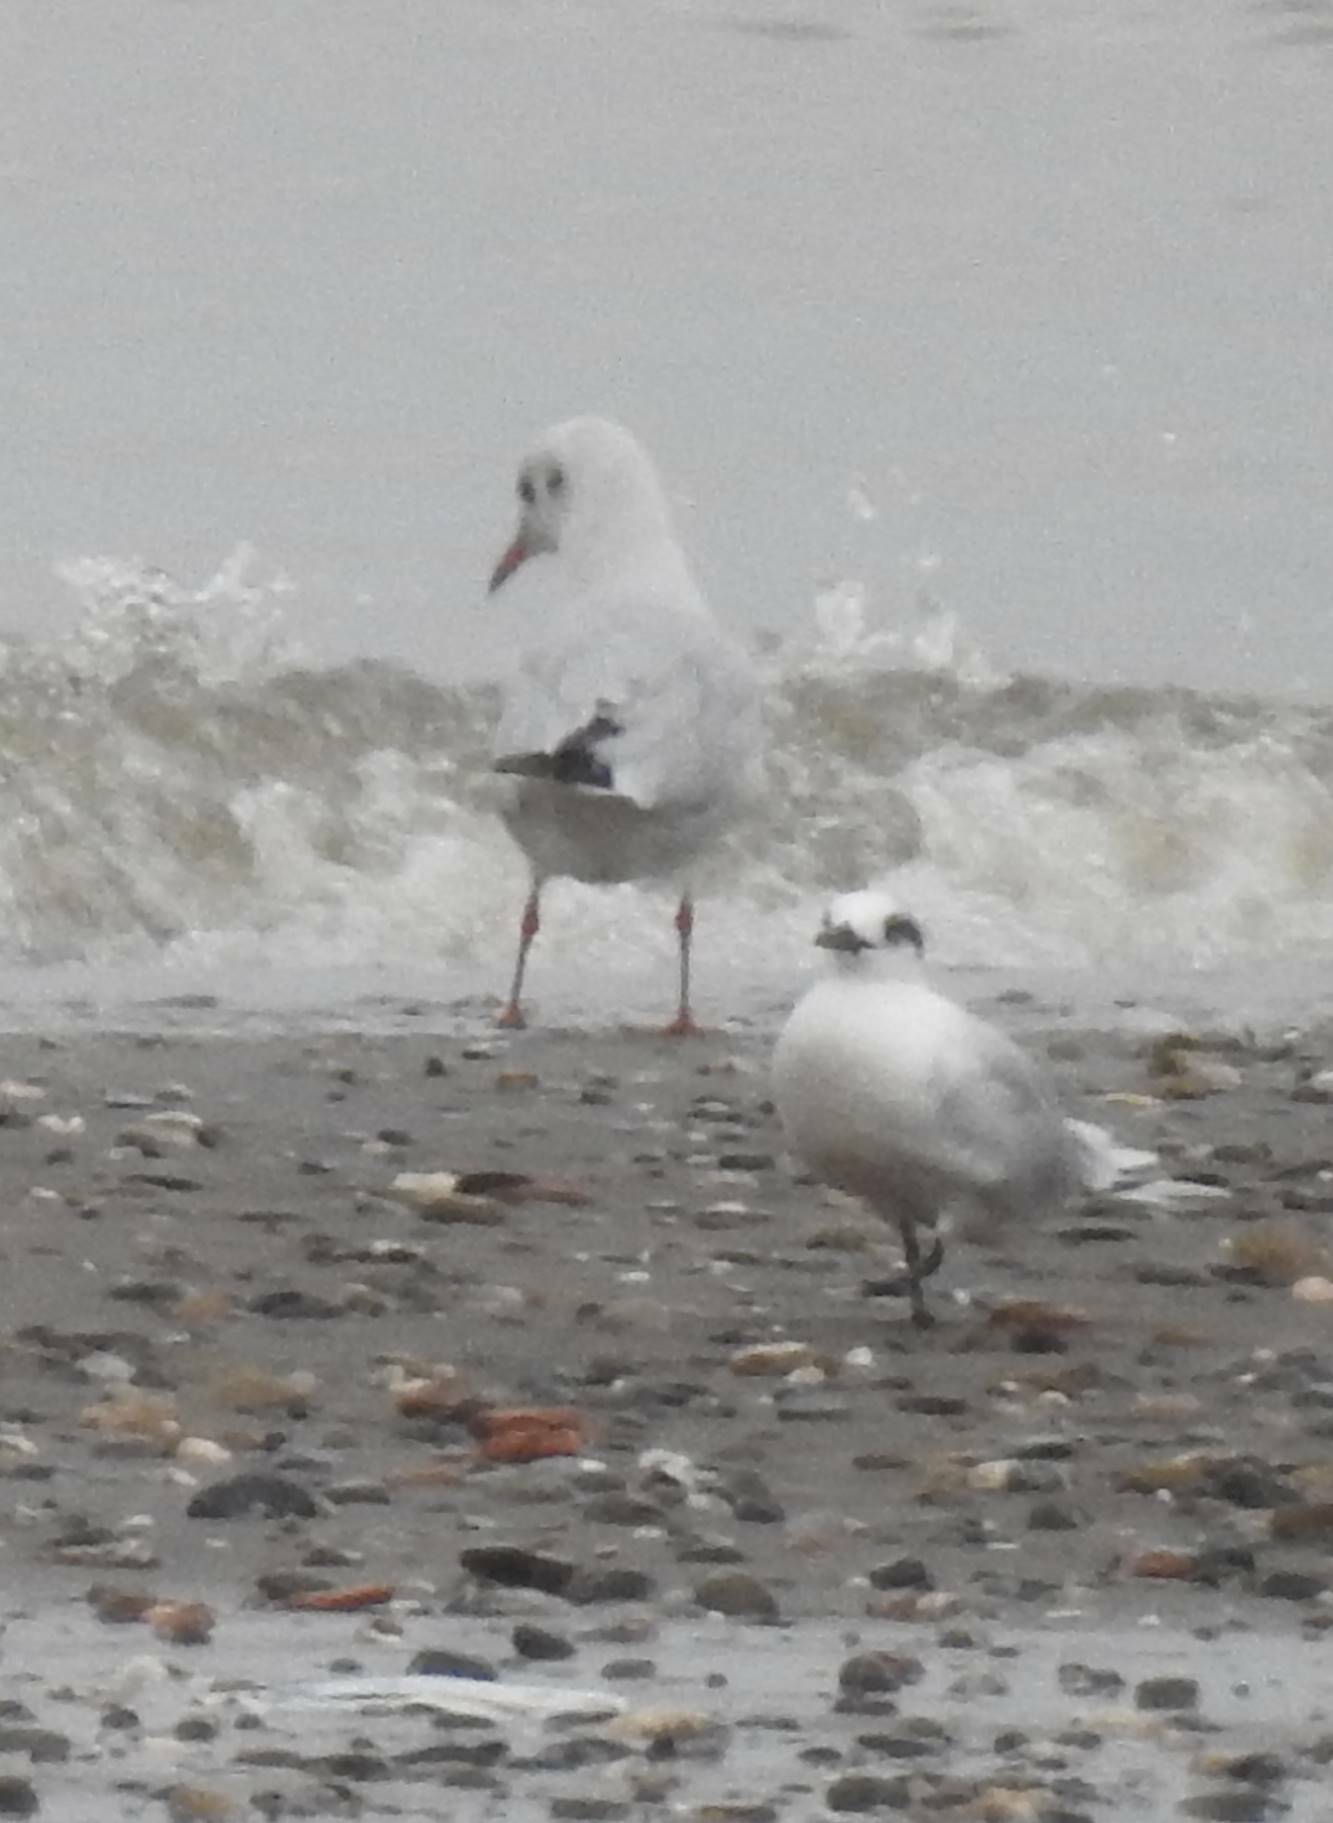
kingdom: Animalia
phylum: Chordata
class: Aves
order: Charadriiformes
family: Laridae
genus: Thalasseus
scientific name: Thalasseus sandvicensis
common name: Sandwich tern
